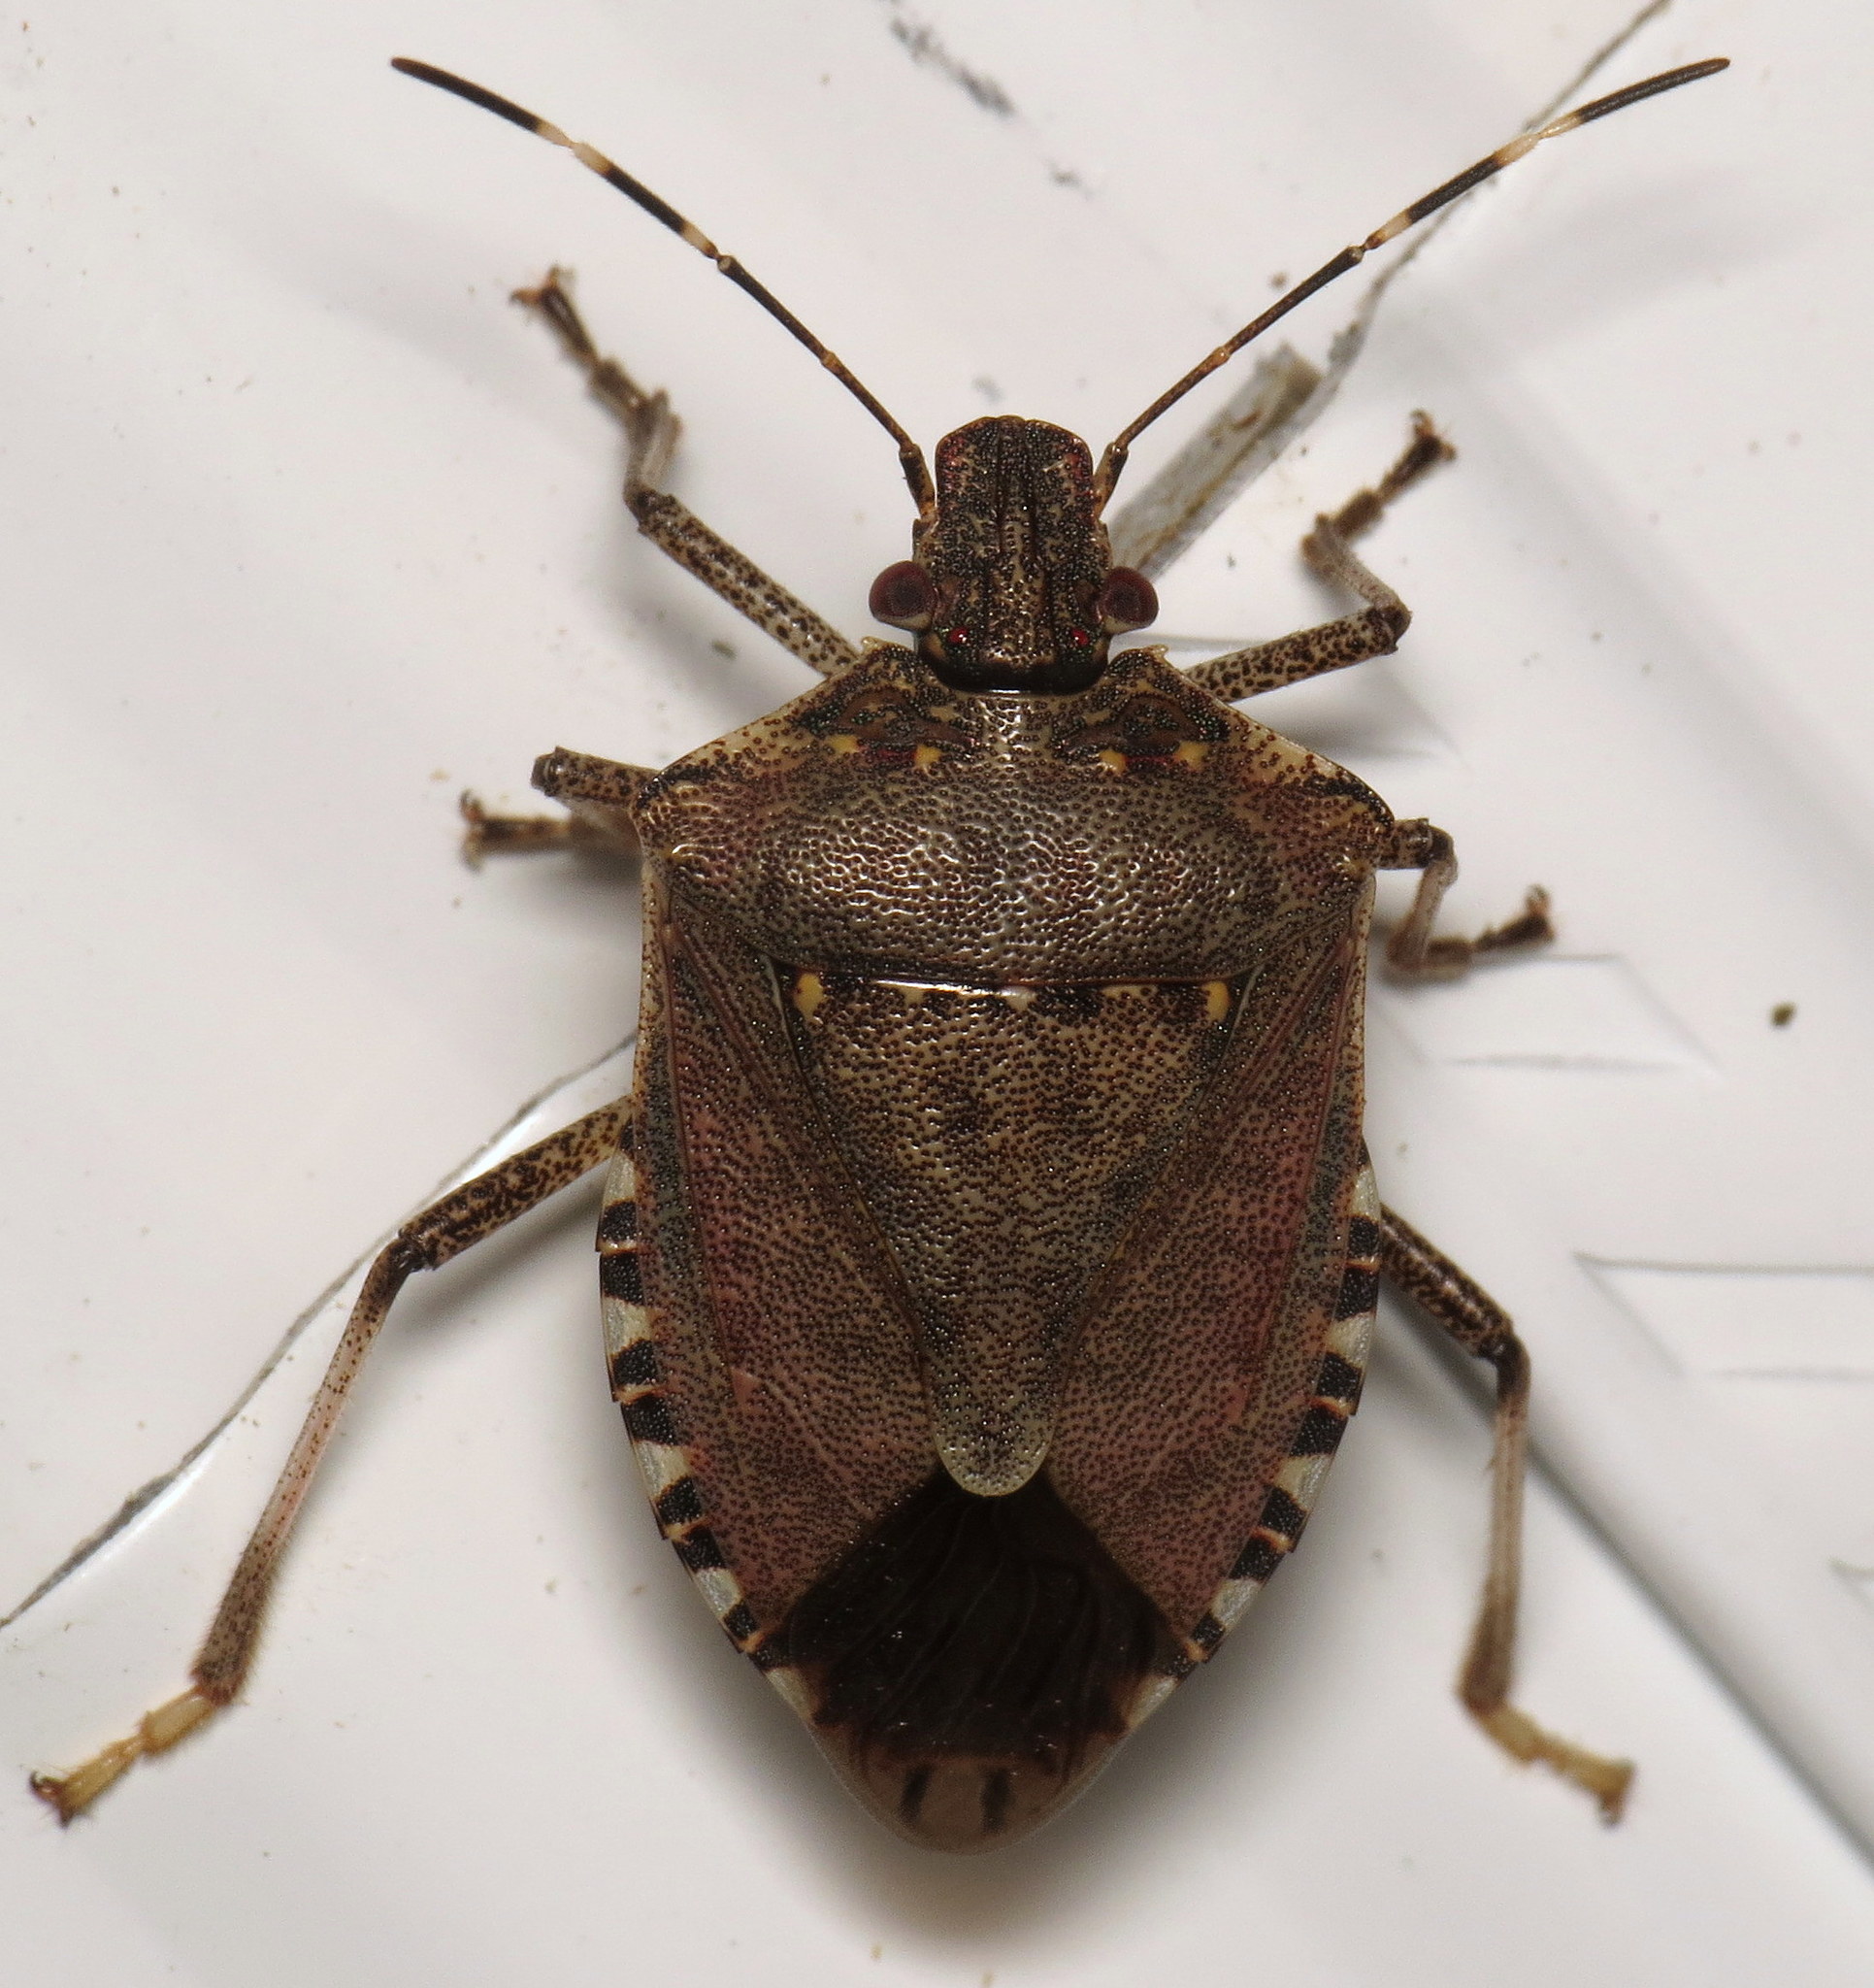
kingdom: Animalia
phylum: Arthropoda
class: Insecta
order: Hemiptera
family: Pentatomidae
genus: Halyomorpha
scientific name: Halyomorpha halys
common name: Brown marmorated stink bug
